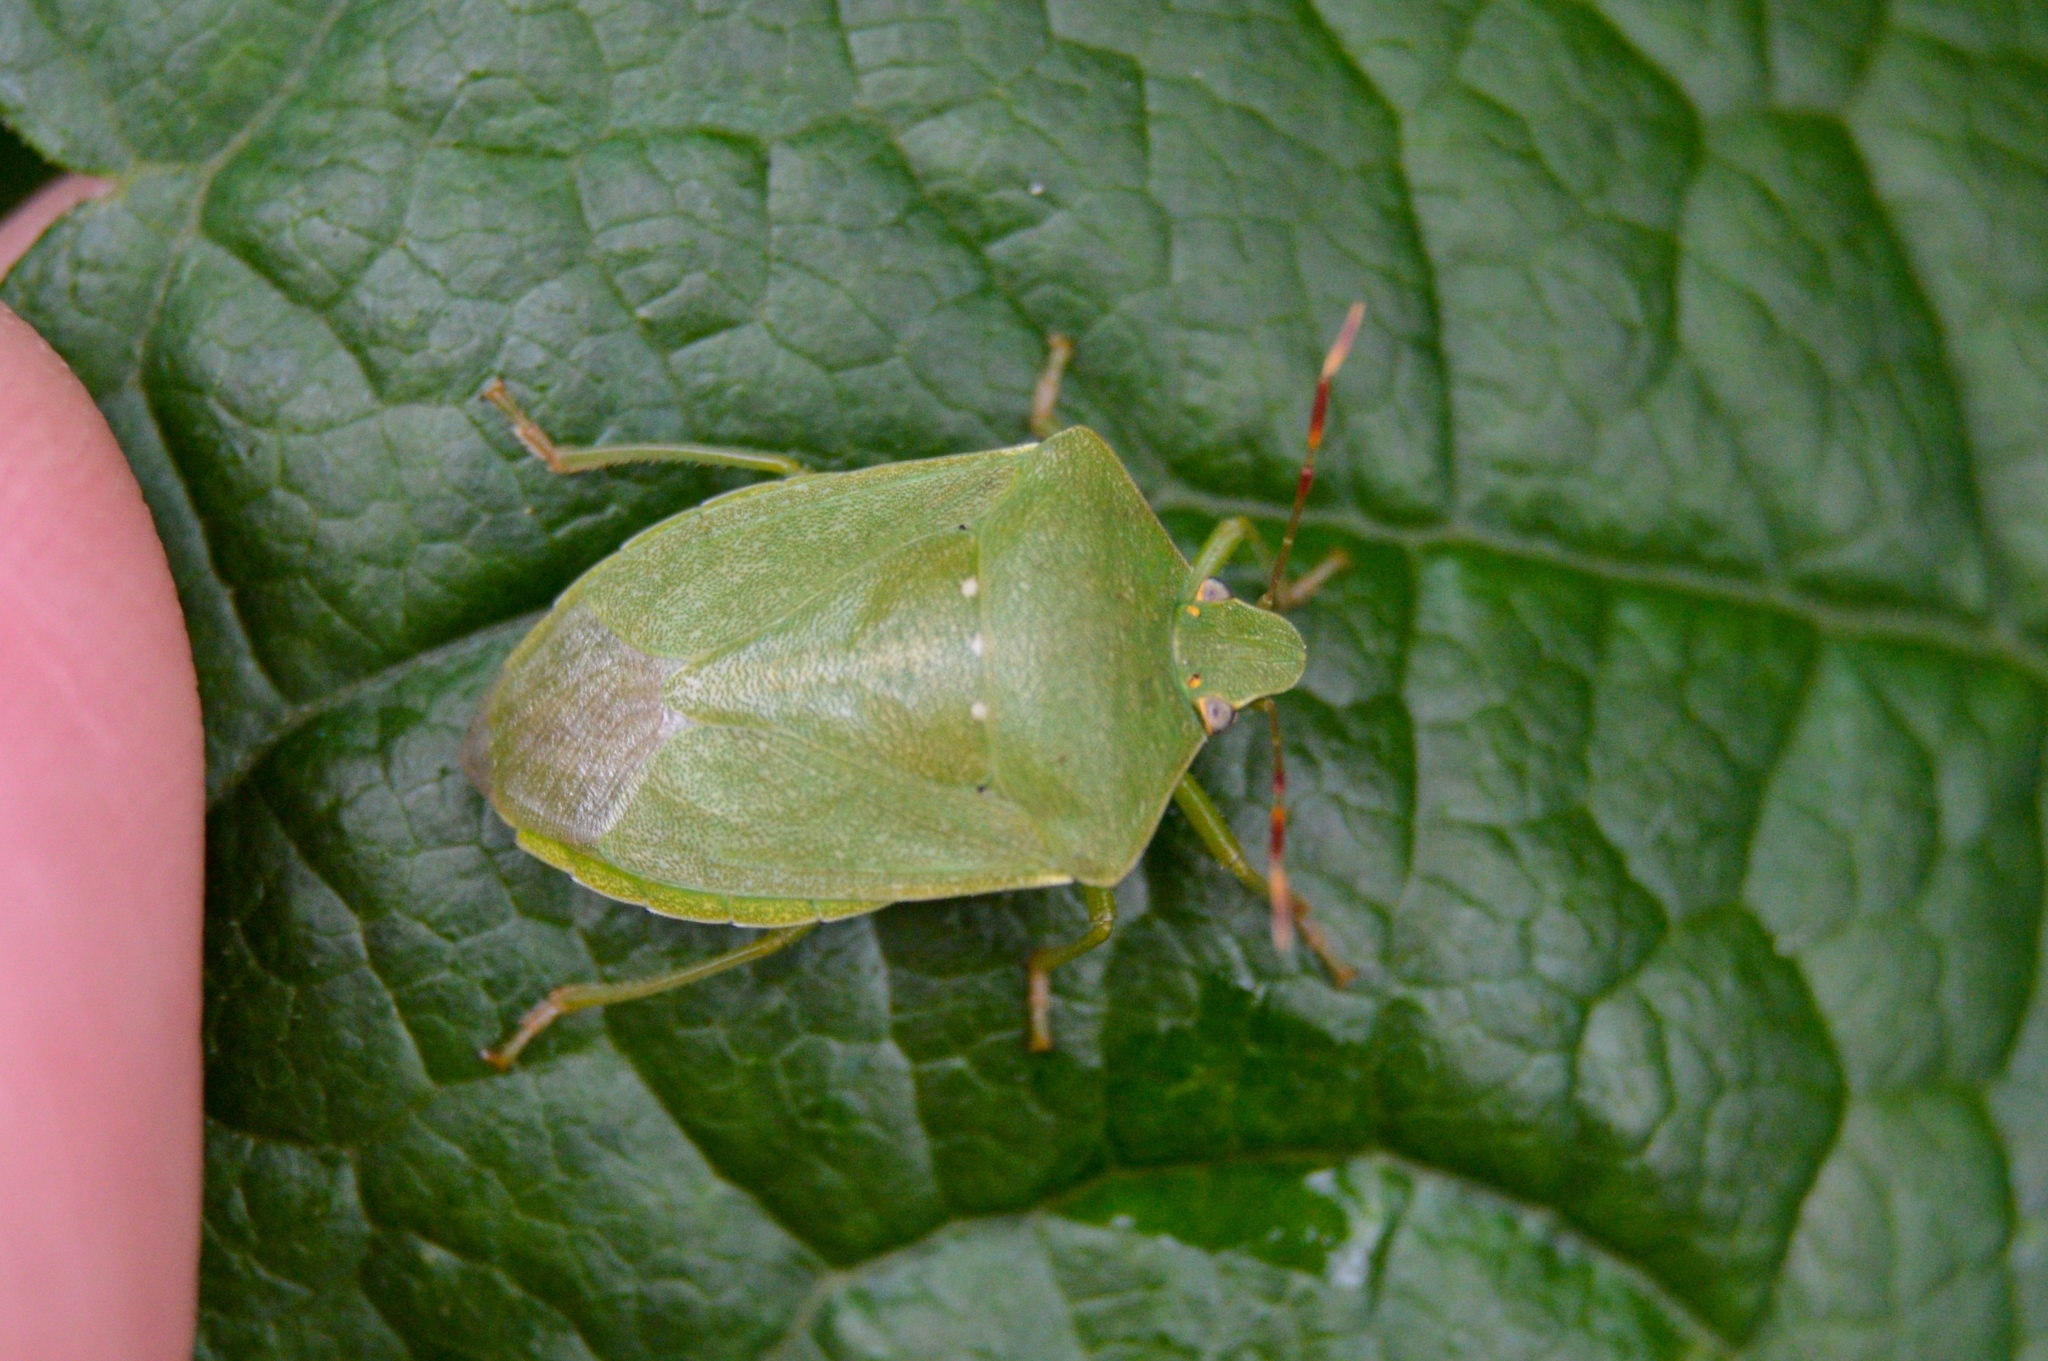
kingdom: Animalia
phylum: Arthropoda
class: Insecta
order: Hemiptera
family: Pentatomidae
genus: Nezara
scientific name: Nezara viridula
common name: Southern green stink bug
